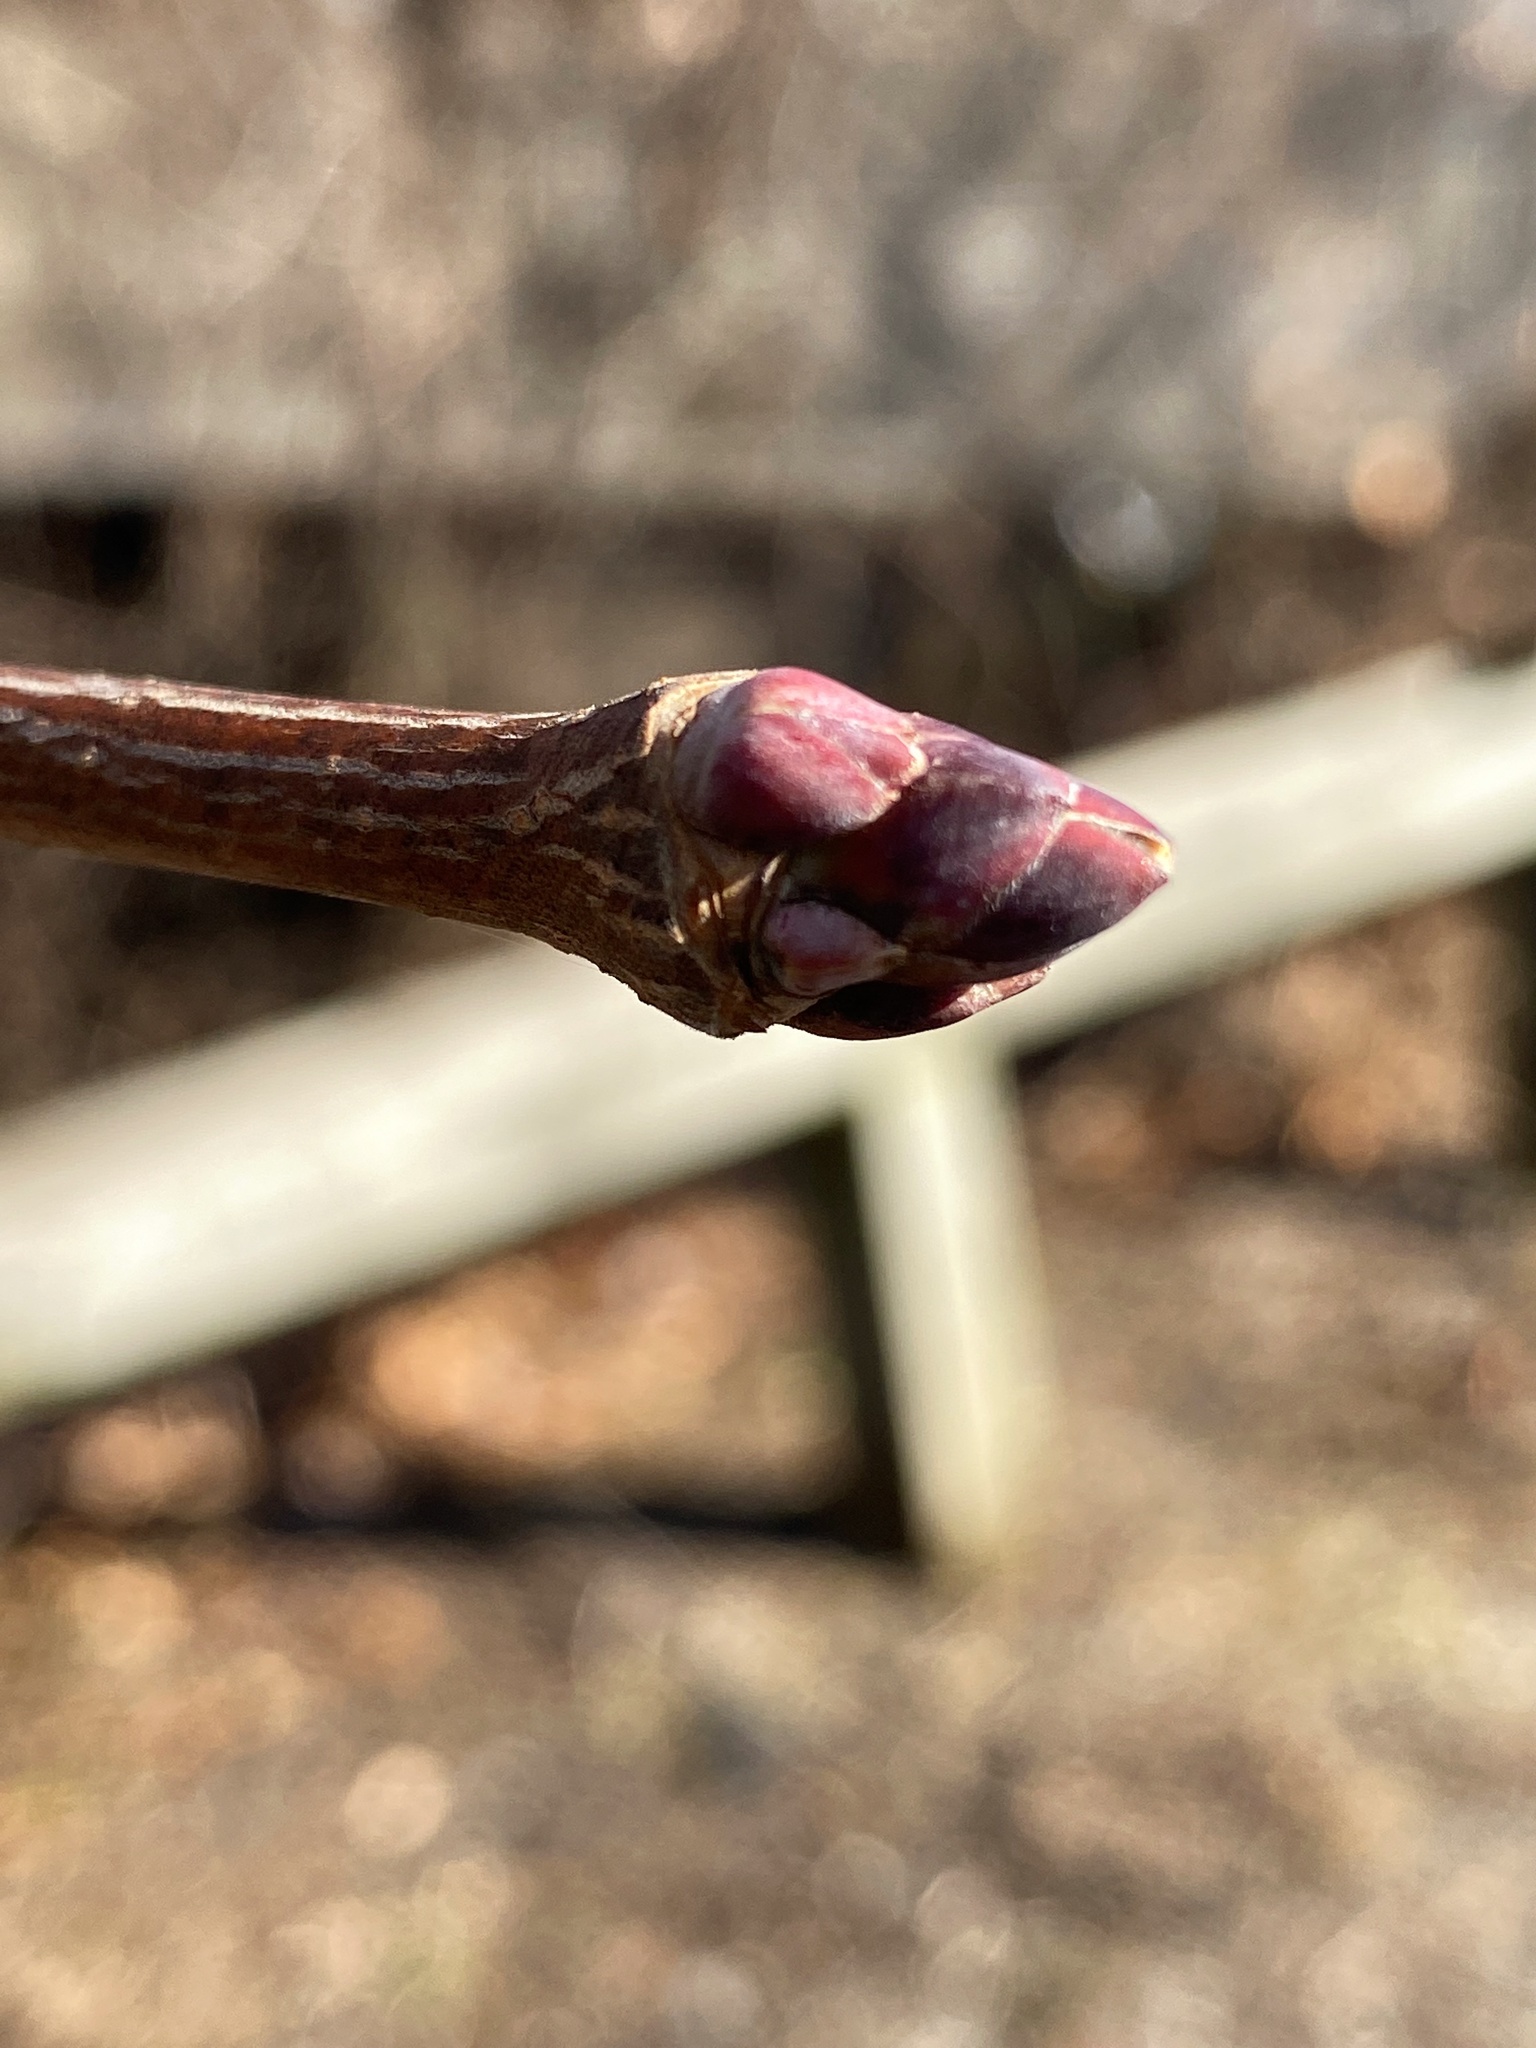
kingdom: Plantae
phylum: Tracheophyta
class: Magnoliopsida
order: Sapindales
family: Sapindaceae
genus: Acer
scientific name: Acer platanoides
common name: Norway maple
